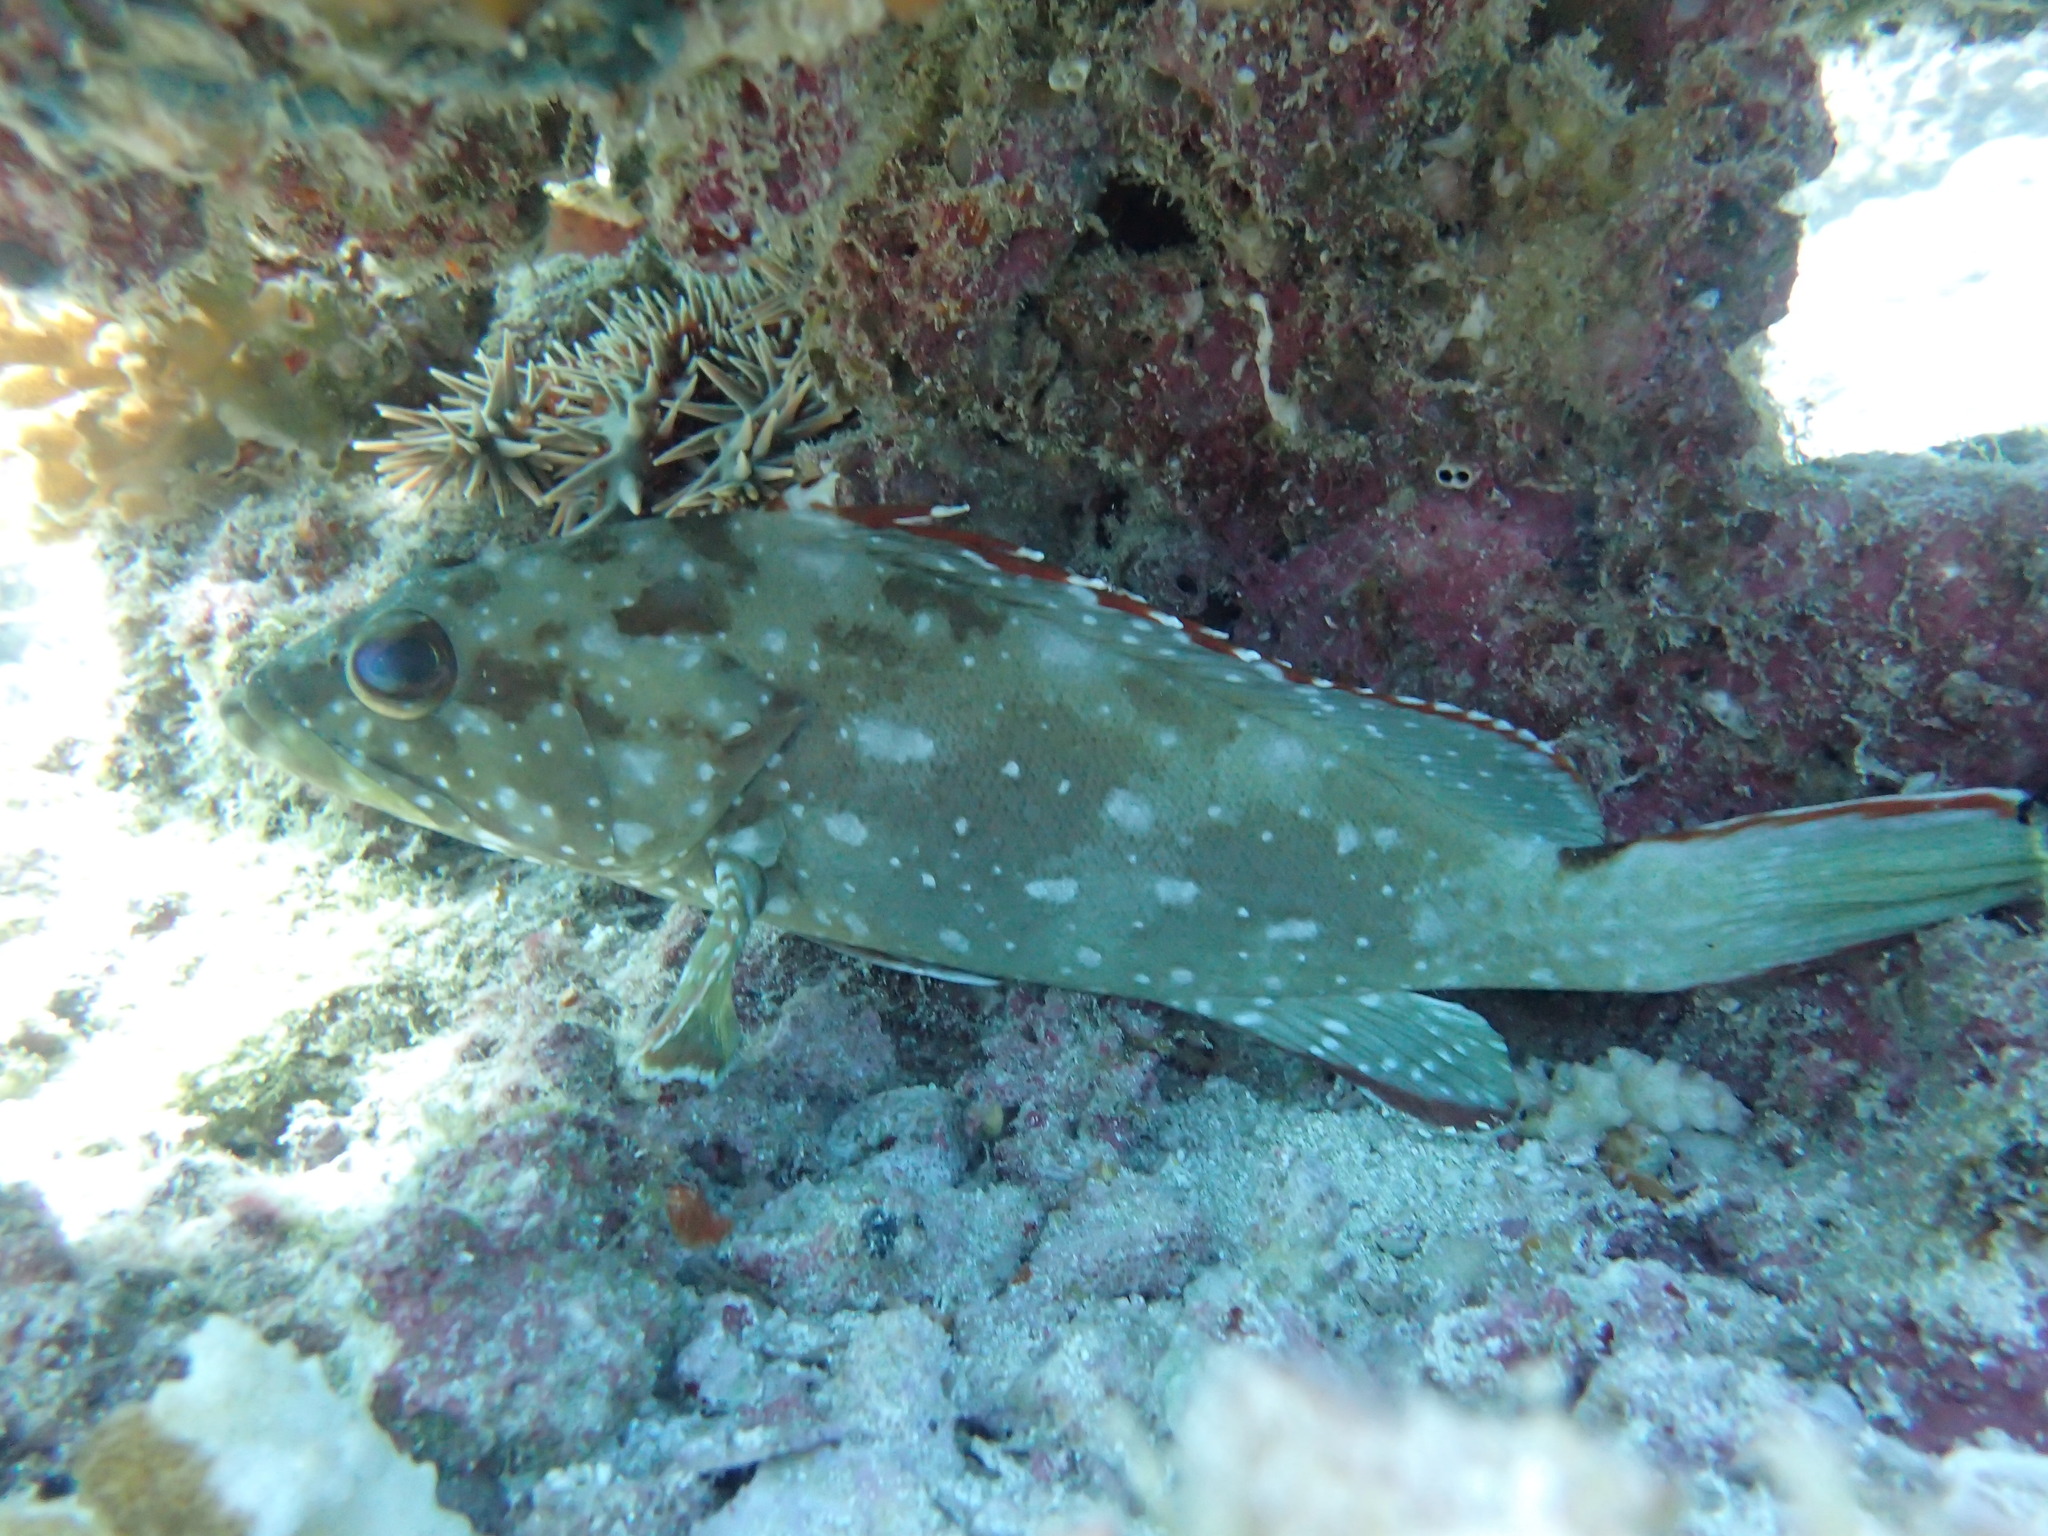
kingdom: Animalia
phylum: Chordata
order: Perciformes
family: Serranidae
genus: Epinephelus
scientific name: Epinephelus labriformis
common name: Flag cabrilla
